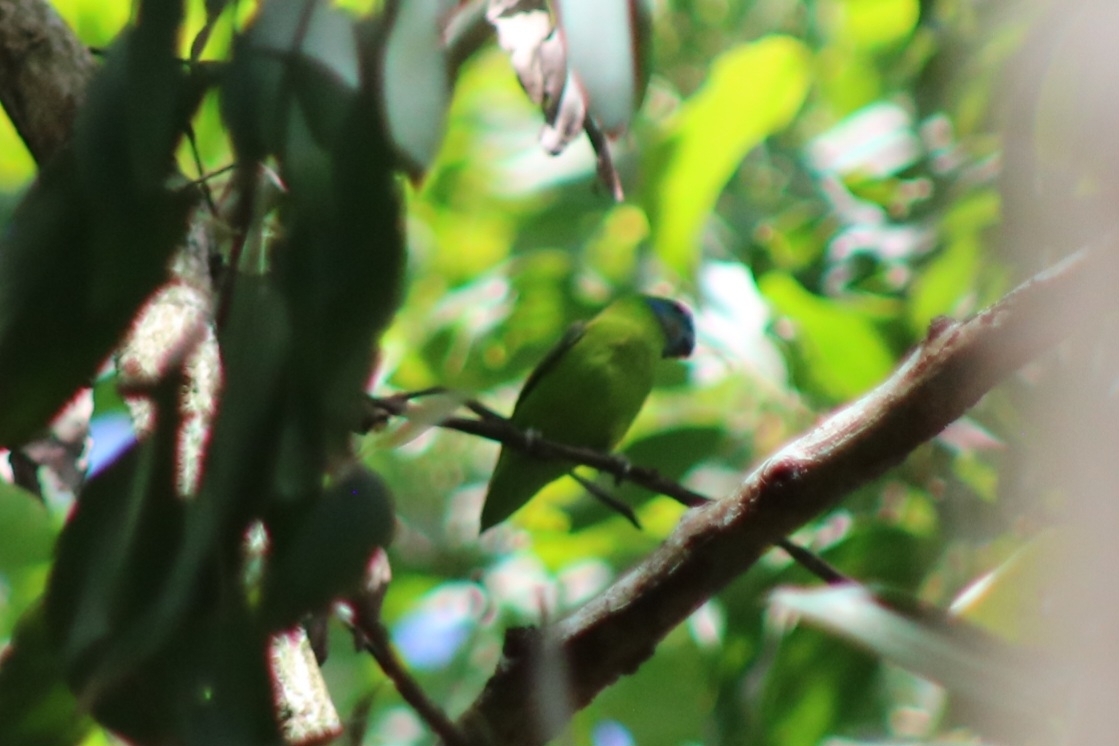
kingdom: Animalia
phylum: Chordata
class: Aves
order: Psittaciformes
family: Psittacidae
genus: Cyclopsitta
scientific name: Cyclopsitta diophthalma
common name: Double-eyed fig parrot
